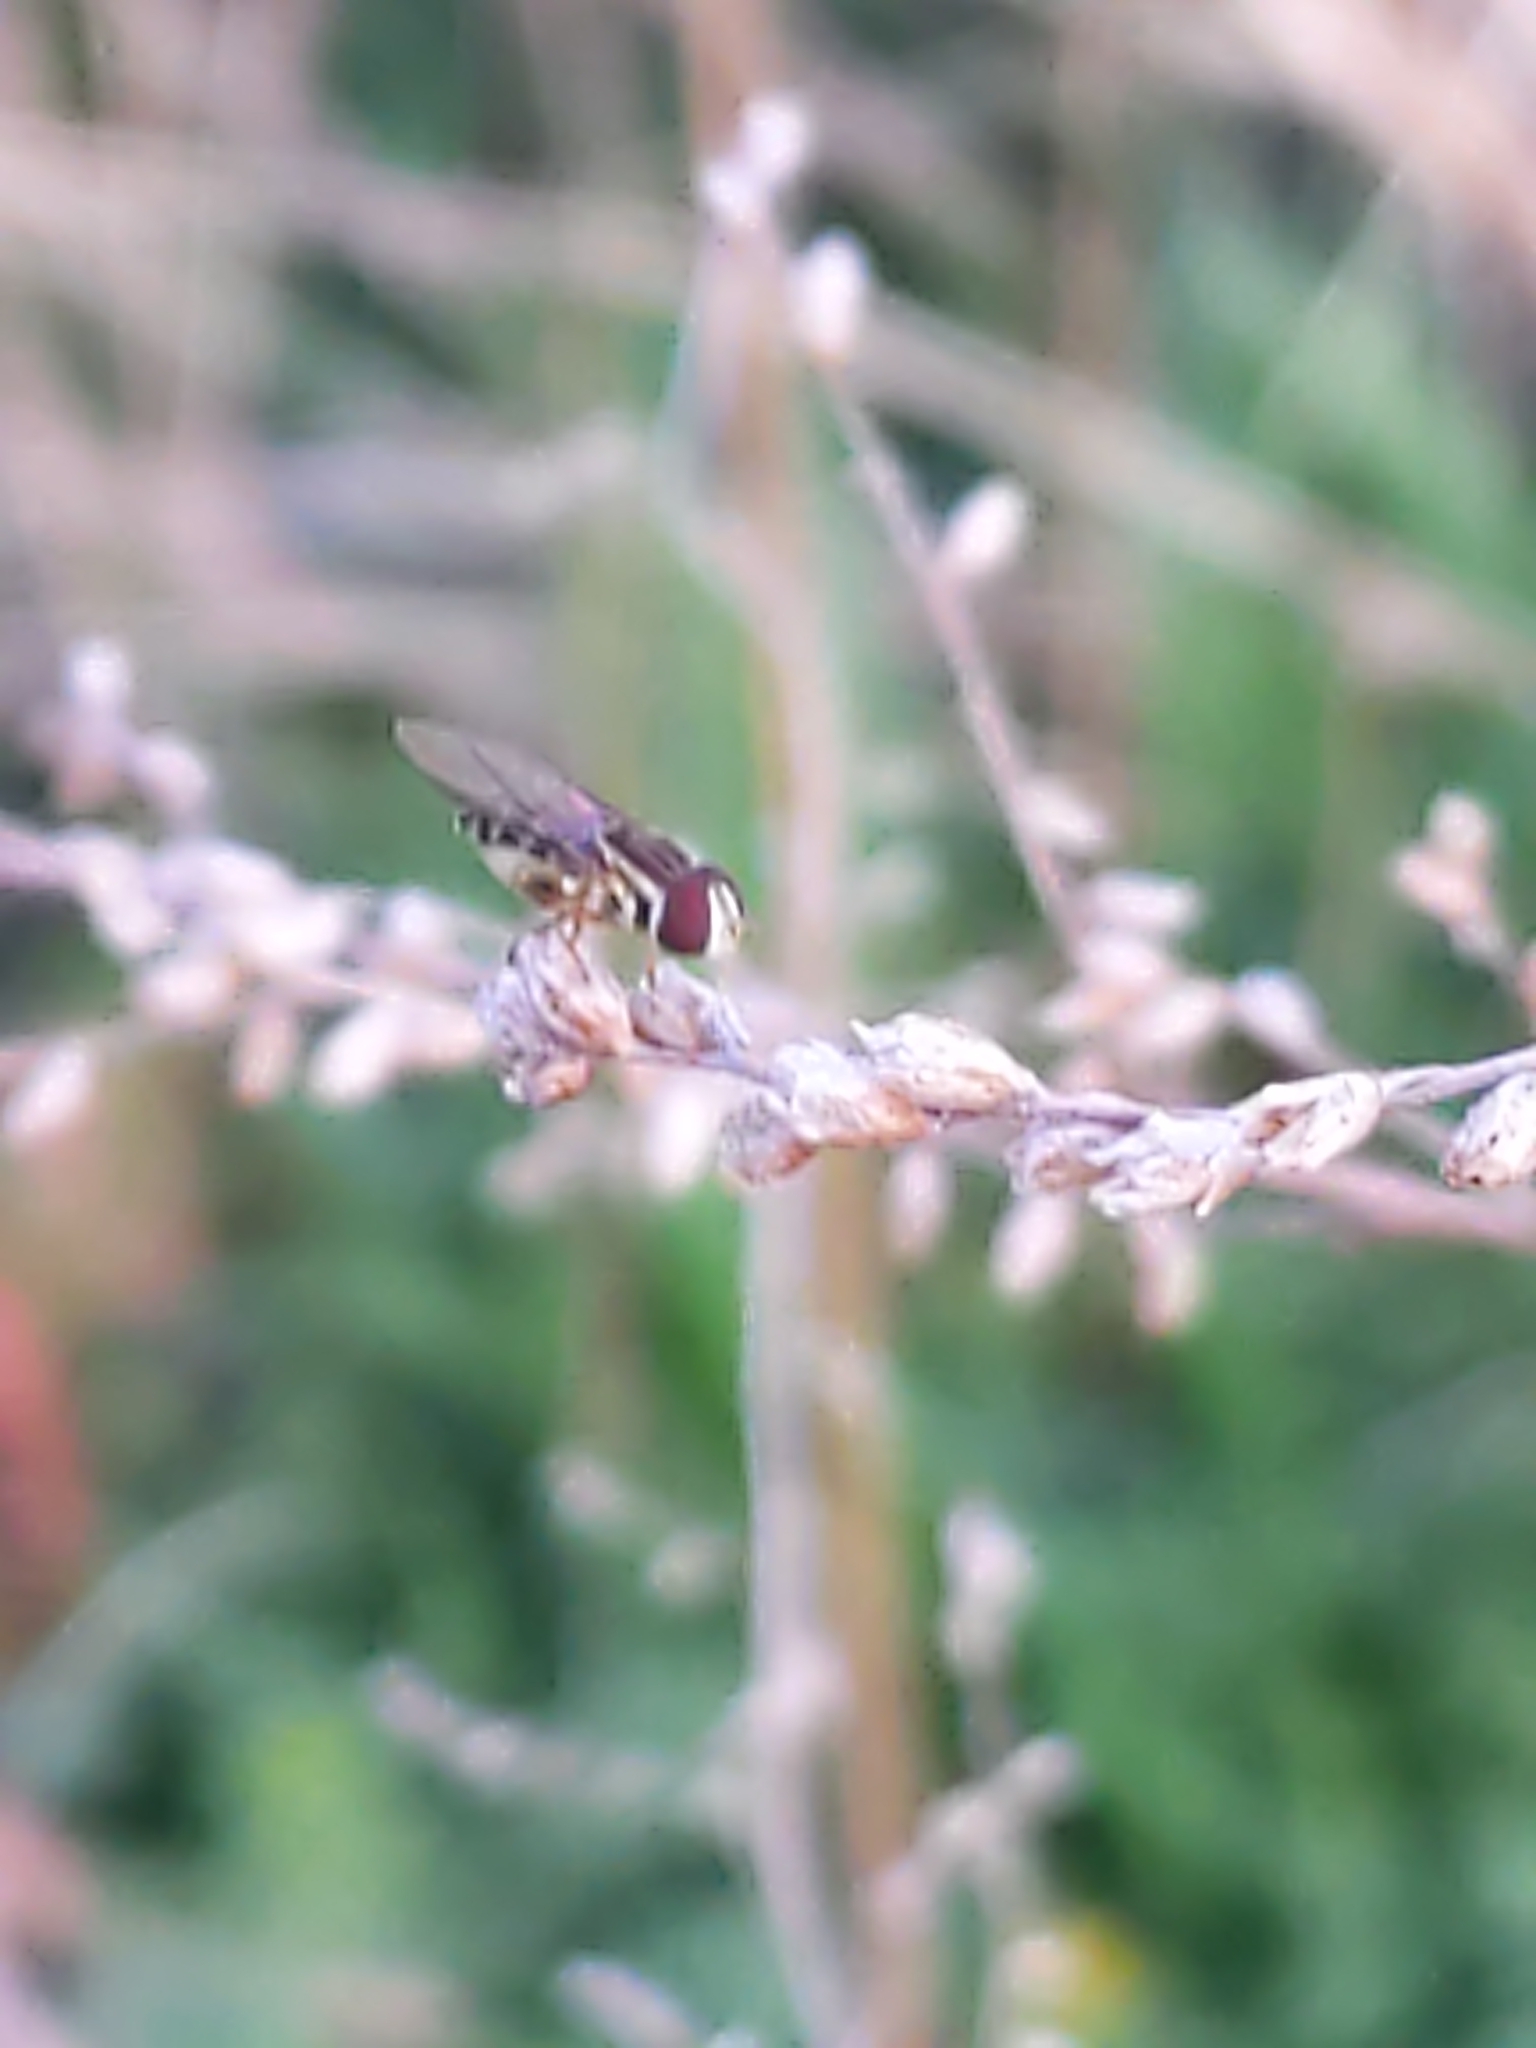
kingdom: Animalia
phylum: Arthropoda
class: Insecta
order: Diptera
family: Syrphidae
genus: Toxomerus
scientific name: Toxomerus geminatus
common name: Eastern calligrapher
